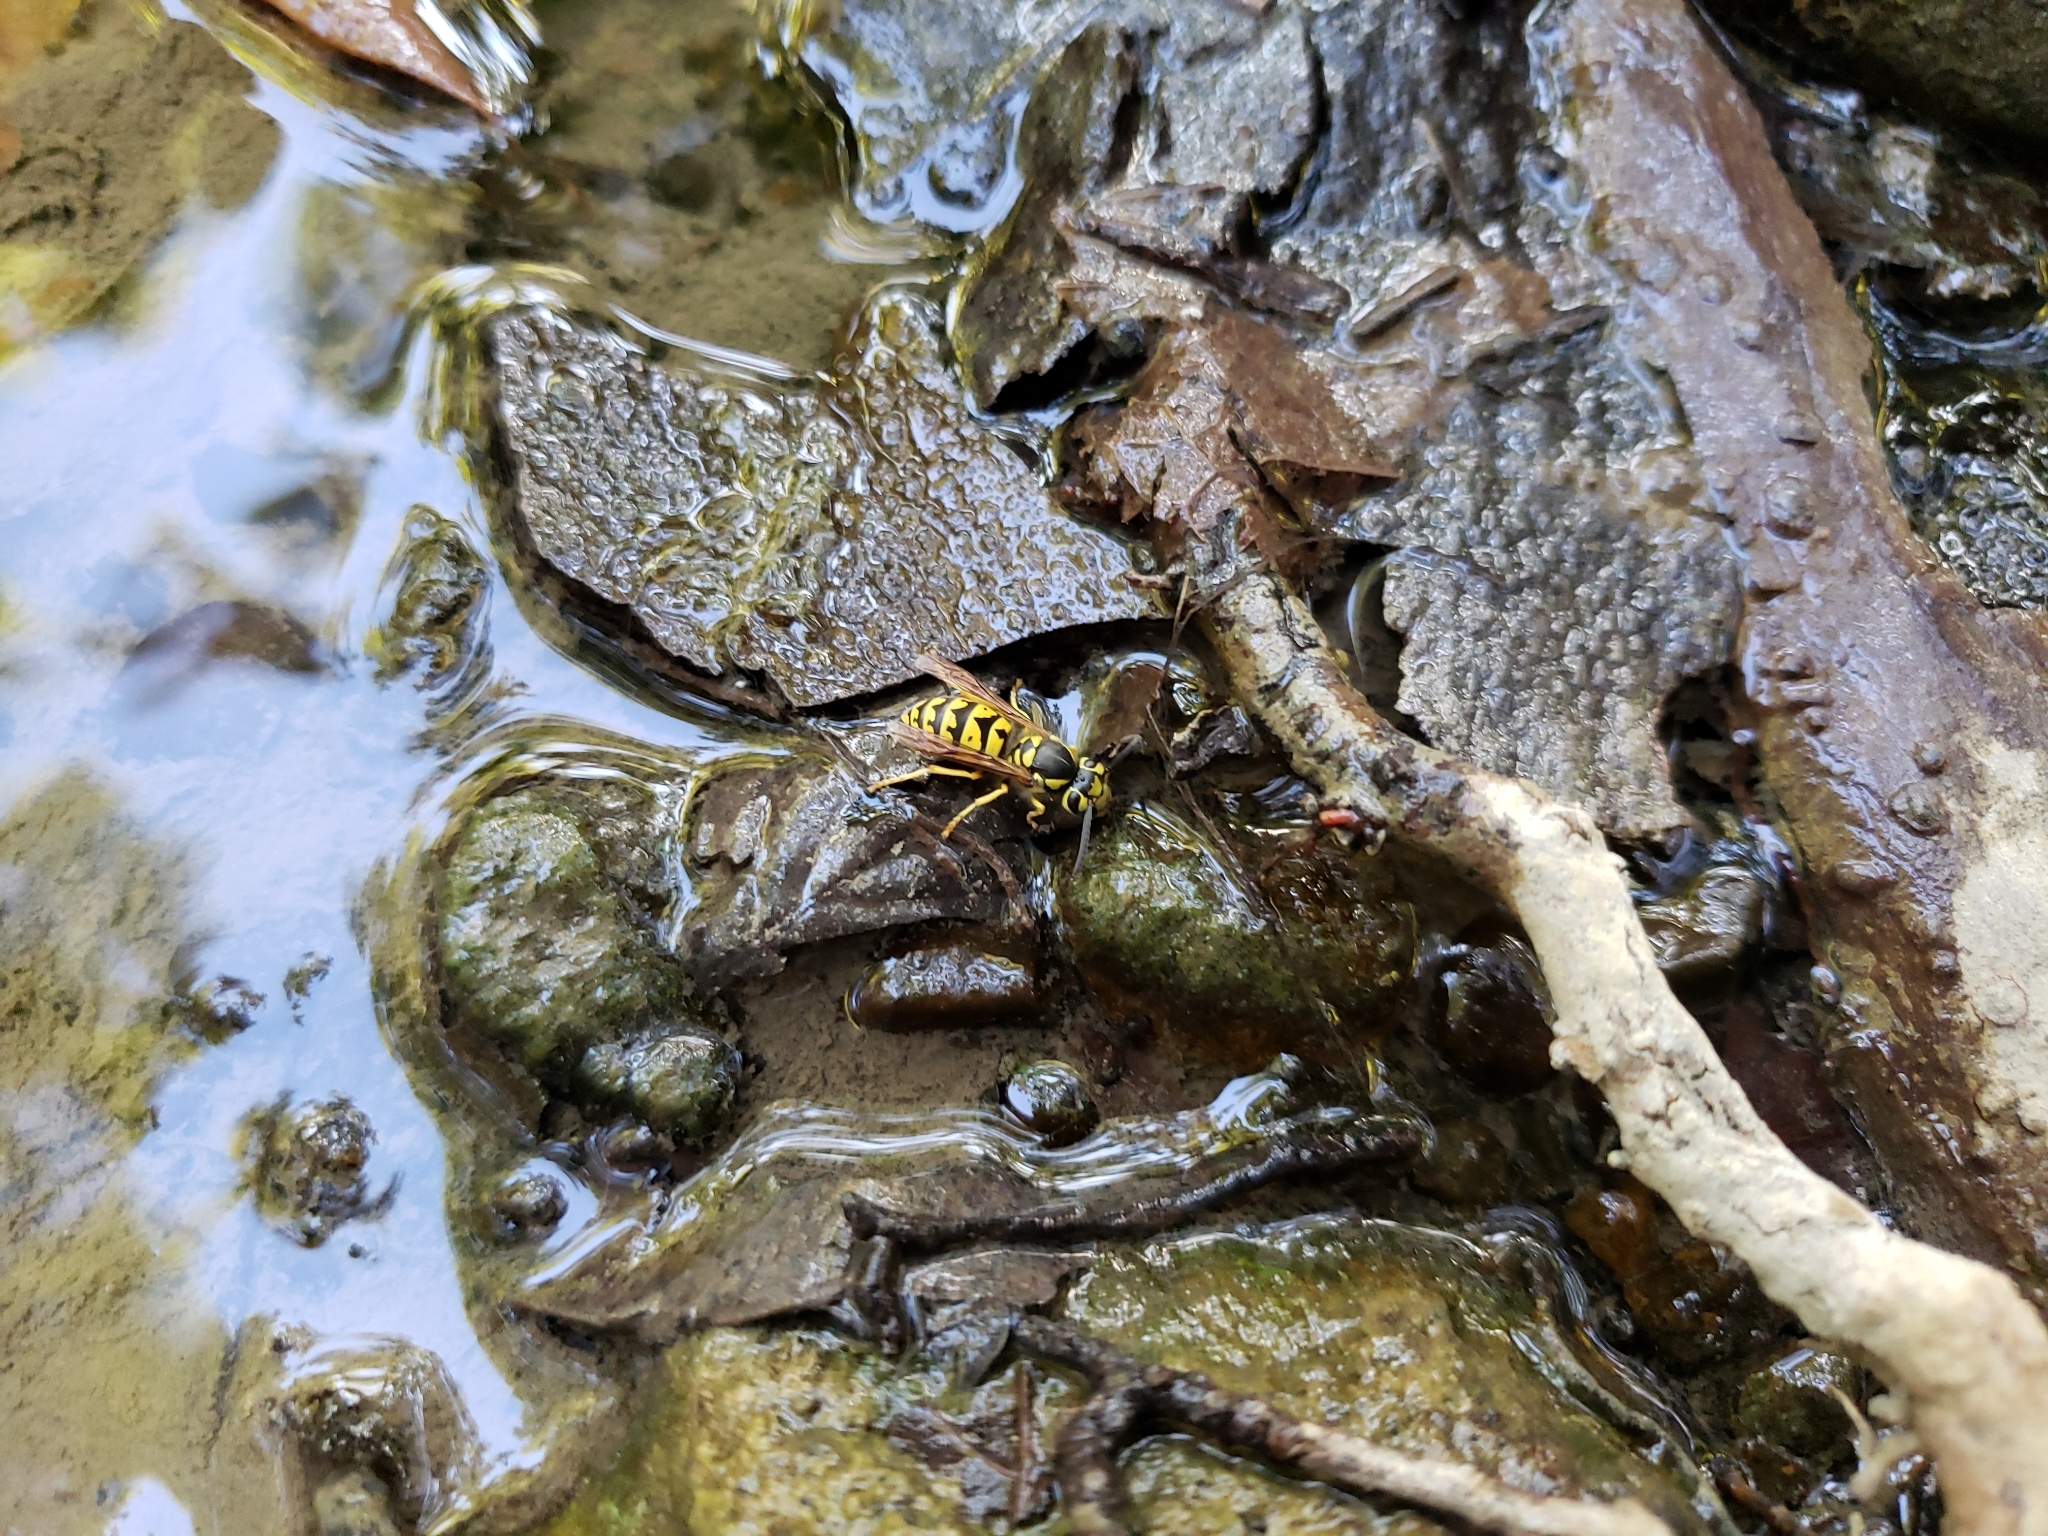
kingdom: Animalia
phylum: Arthropoda
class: Insecta
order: Hymenoptera
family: Vespidae
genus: Vespula
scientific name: Vespula pensylvanica
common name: Western yellowjacket
